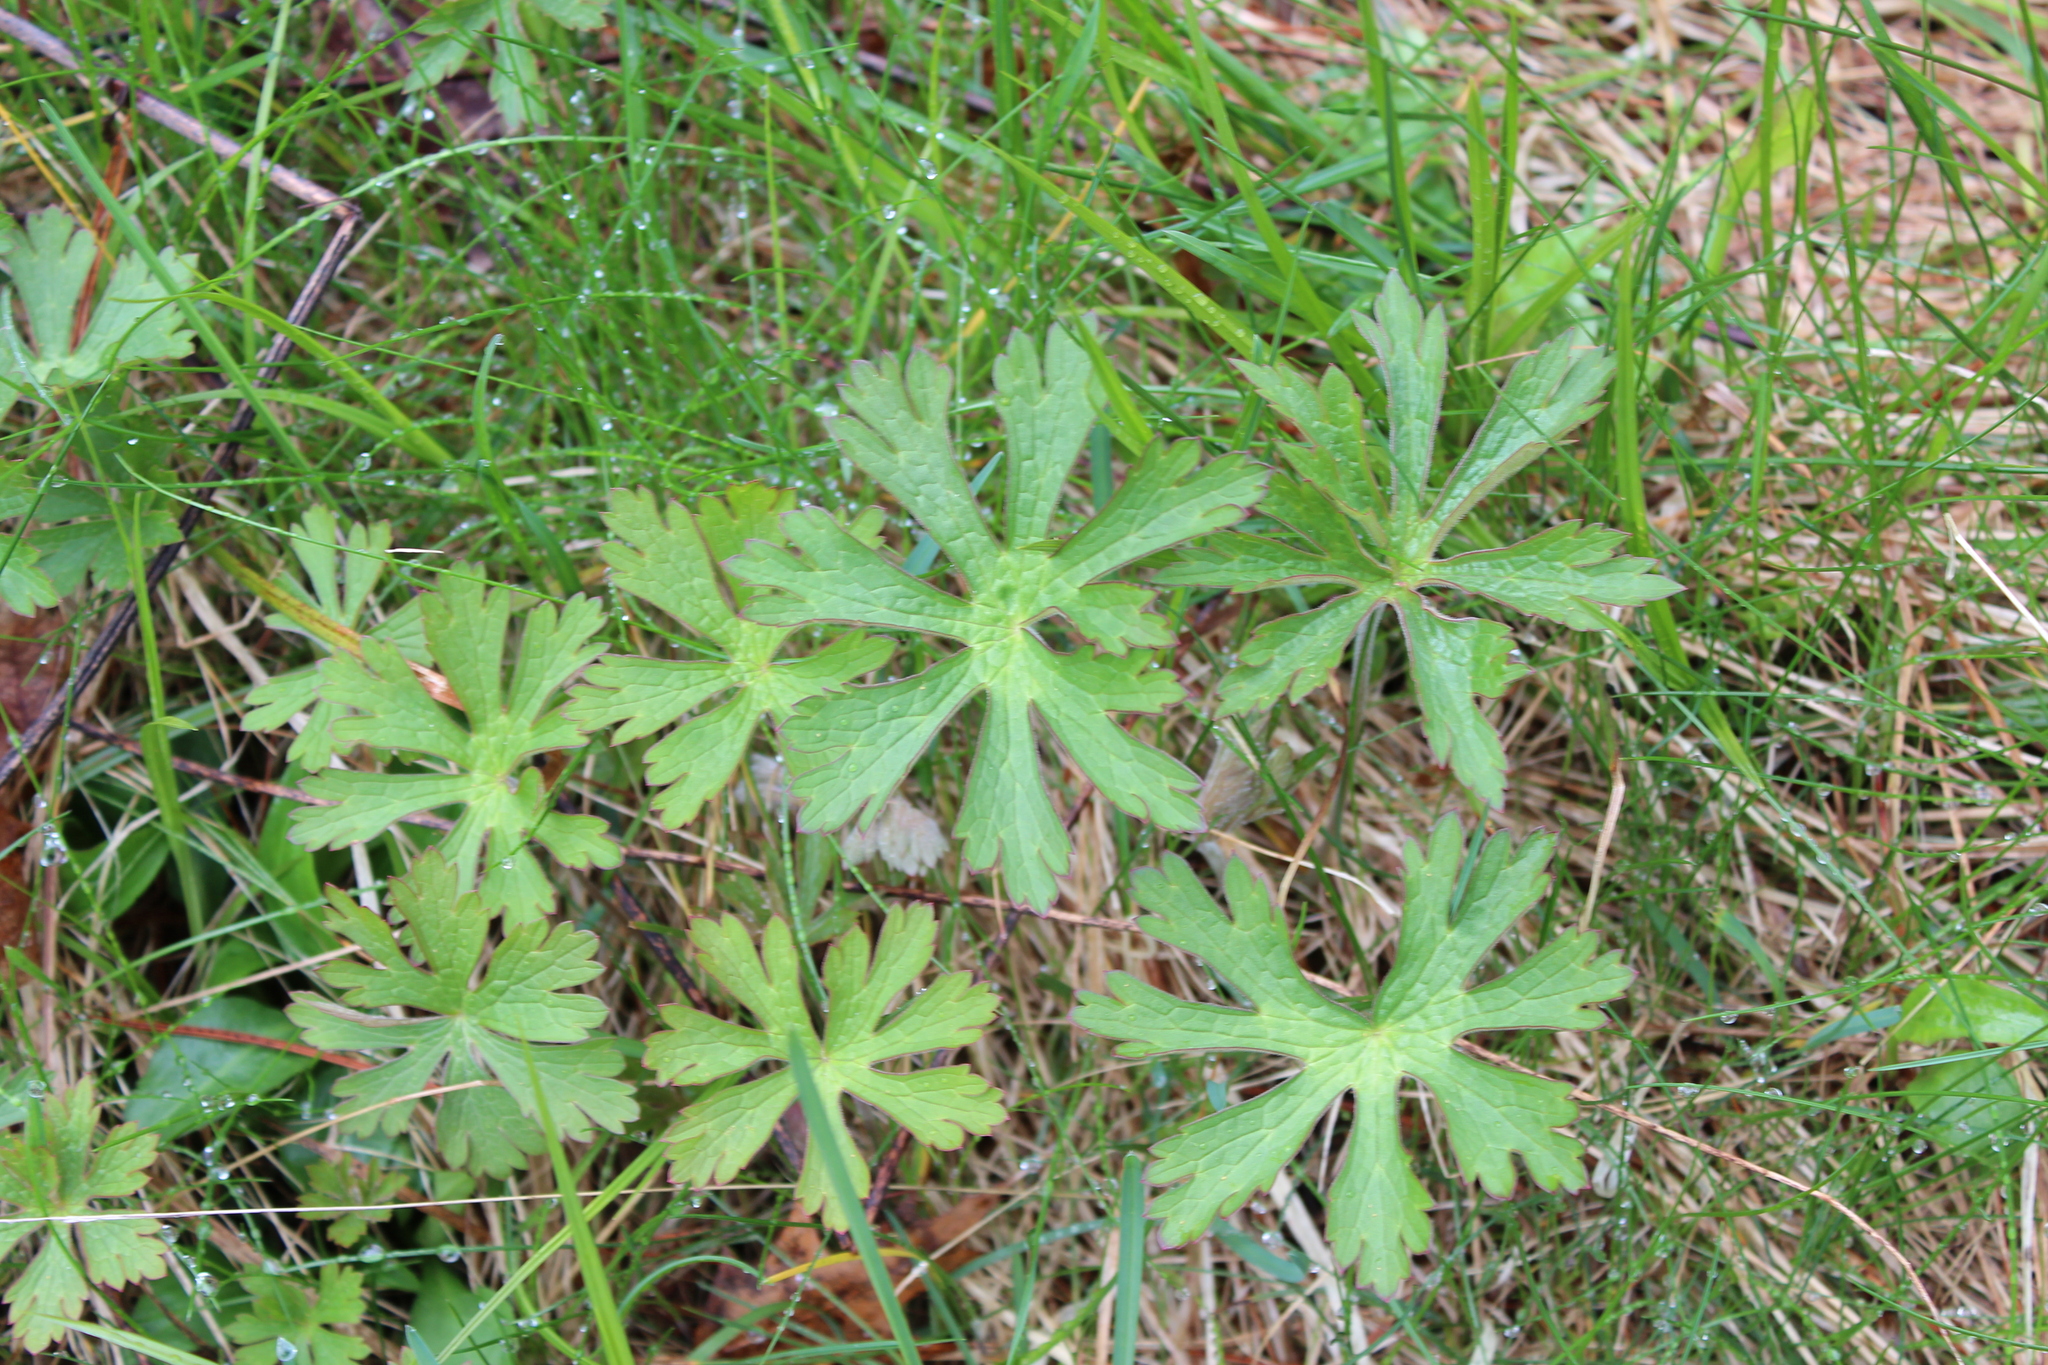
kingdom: Plantae
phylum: Tracheophyta
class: Magnoliopsida
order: Geraniales
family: Geraniaceae
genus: Geranium
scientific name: Geranium maculatum
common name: Spotted geranium
